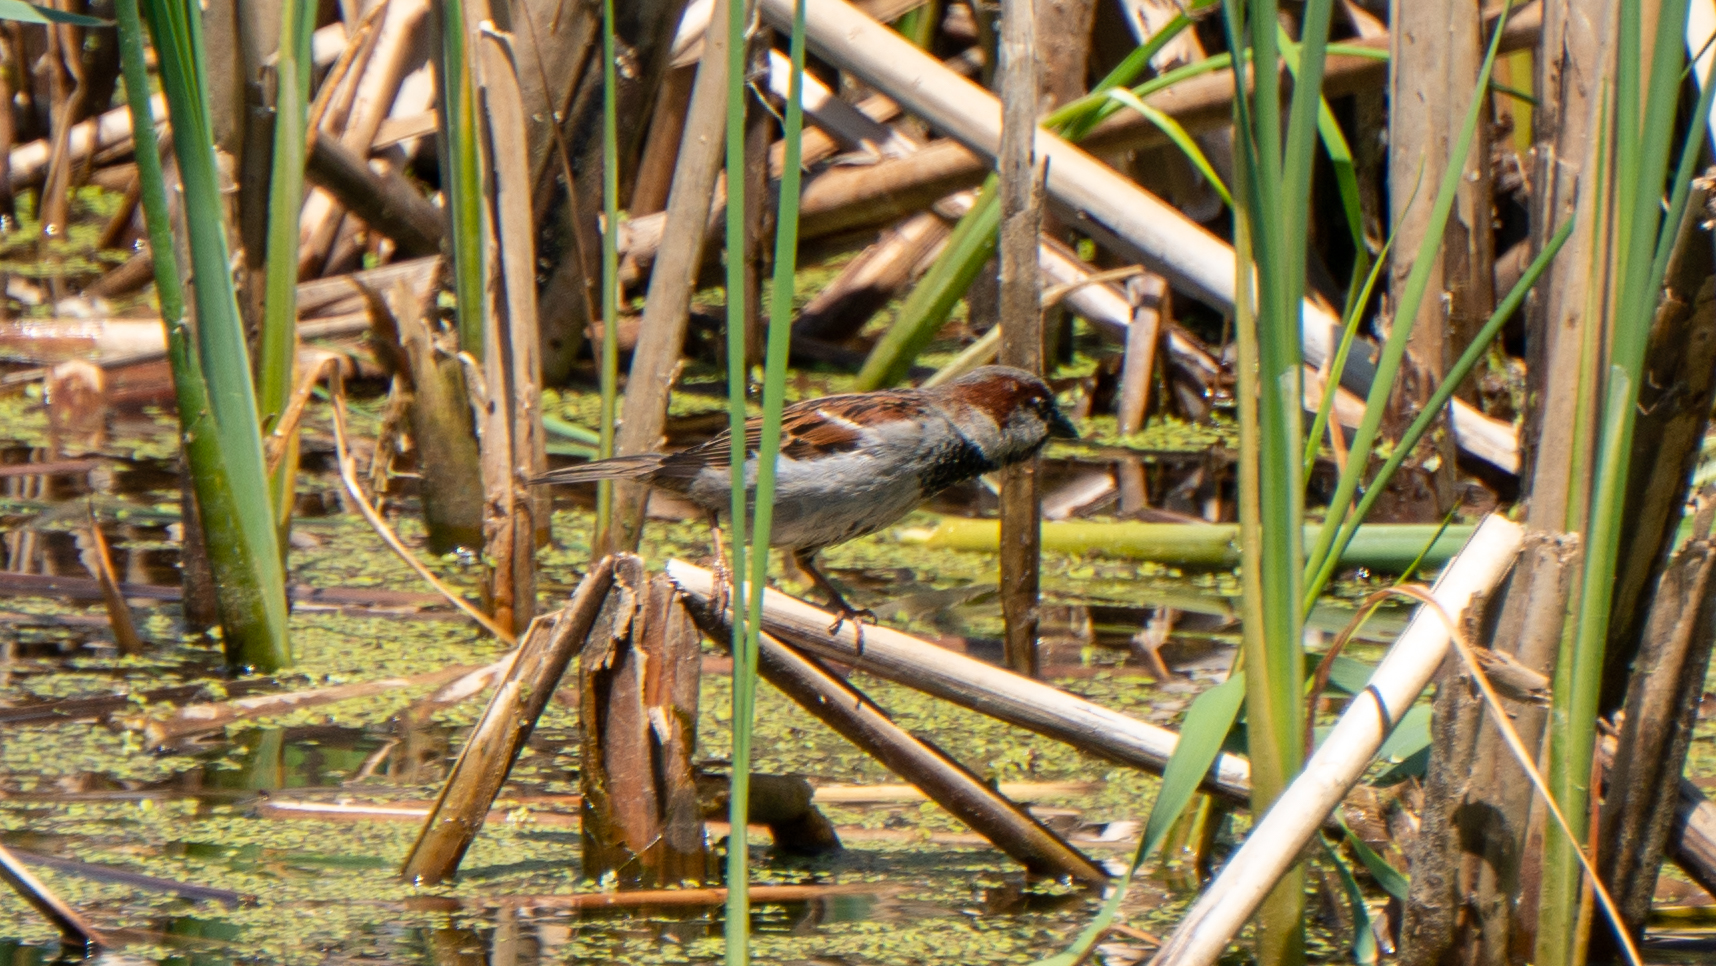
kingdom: Animalia
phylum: Chordata
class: Aves
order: Passeriformes
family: Passeridae
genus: Passer
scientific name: Passer domesticus
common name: House sparrow
